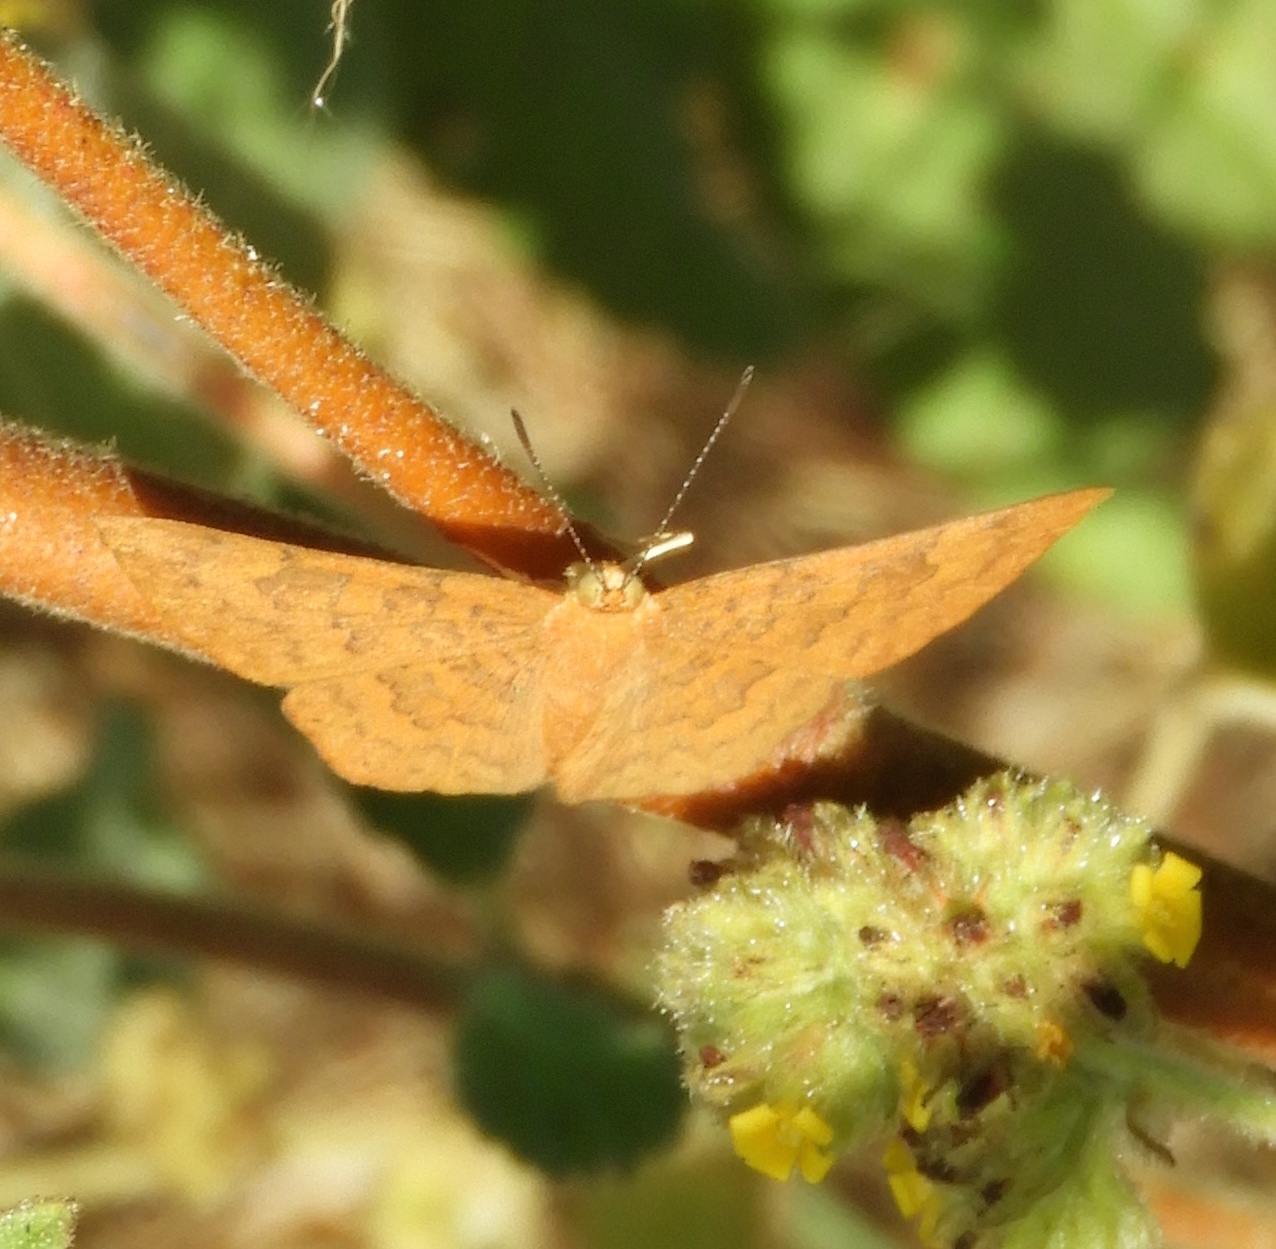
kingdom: Animalia
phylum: Arthropoda
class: Insecta
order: Lepidoptera
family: Lycaenidae
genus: Emesis
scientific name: Emesis tenedia
